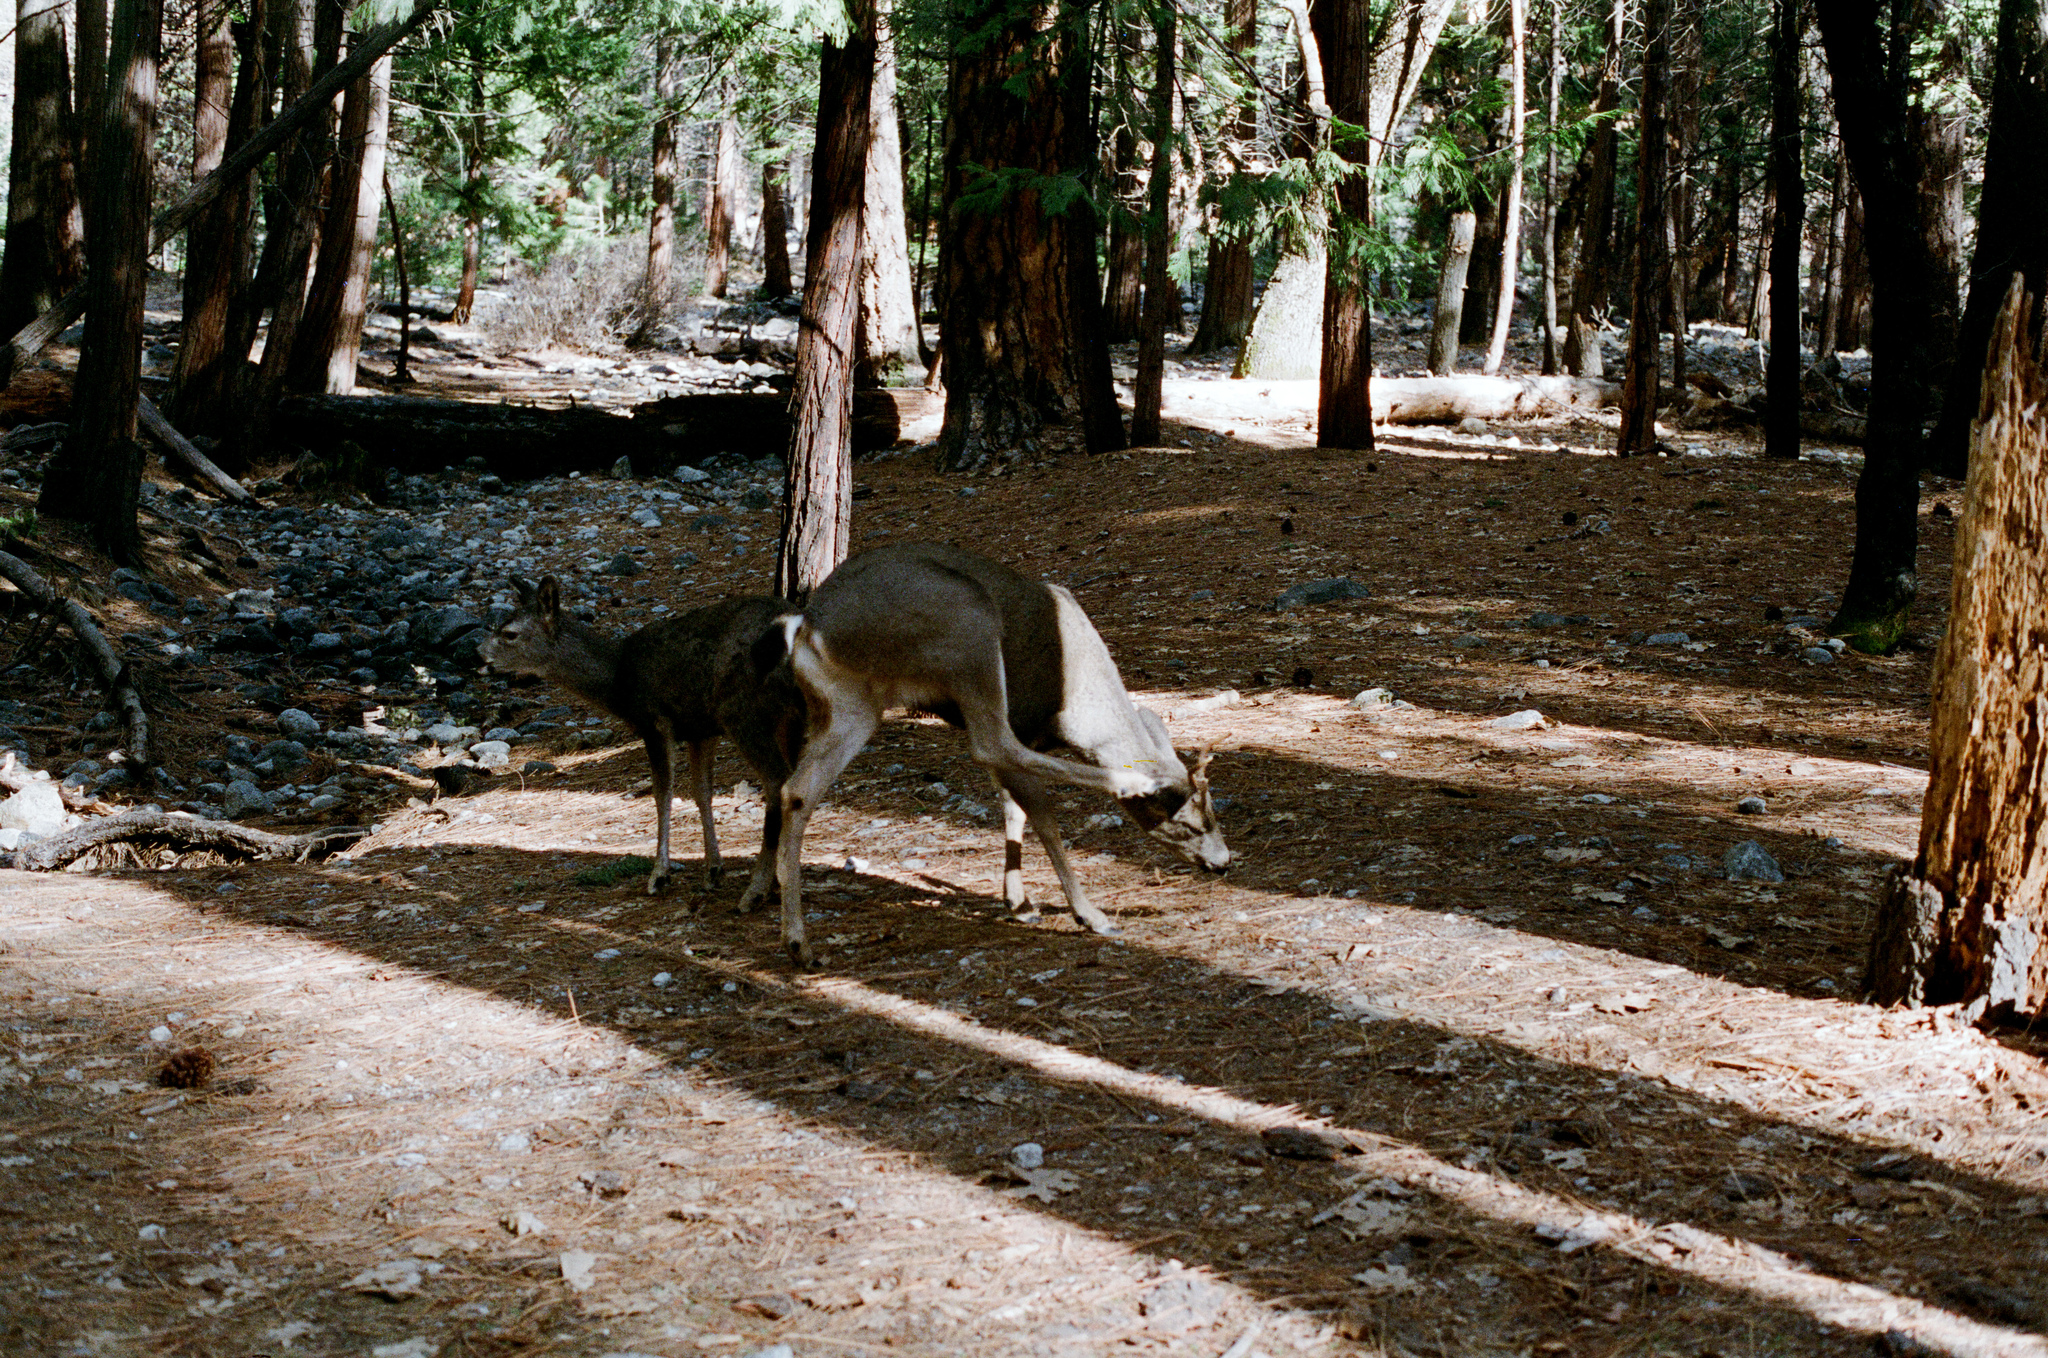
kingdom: Animalia
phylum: Chordata
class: Mammalia
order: Artiodactyla
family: Cervidae
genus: Odocoileus
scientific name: Odocoileus hemionus
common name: Mule deer
